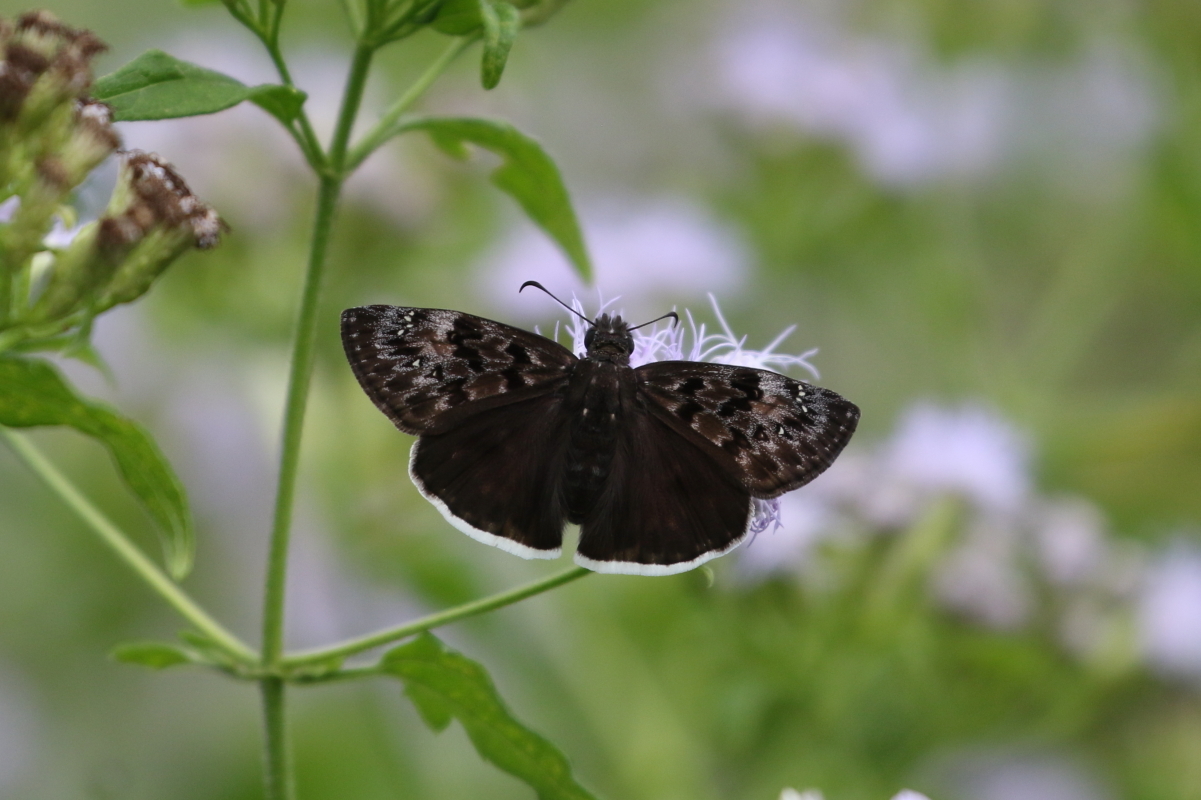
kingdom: Animalia
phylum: Arthropoda
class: Insecta
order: Lepidoptera
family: Hesperiidae
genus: Erynnis
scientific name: Erynnis tristis
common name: Mournful duskywing
